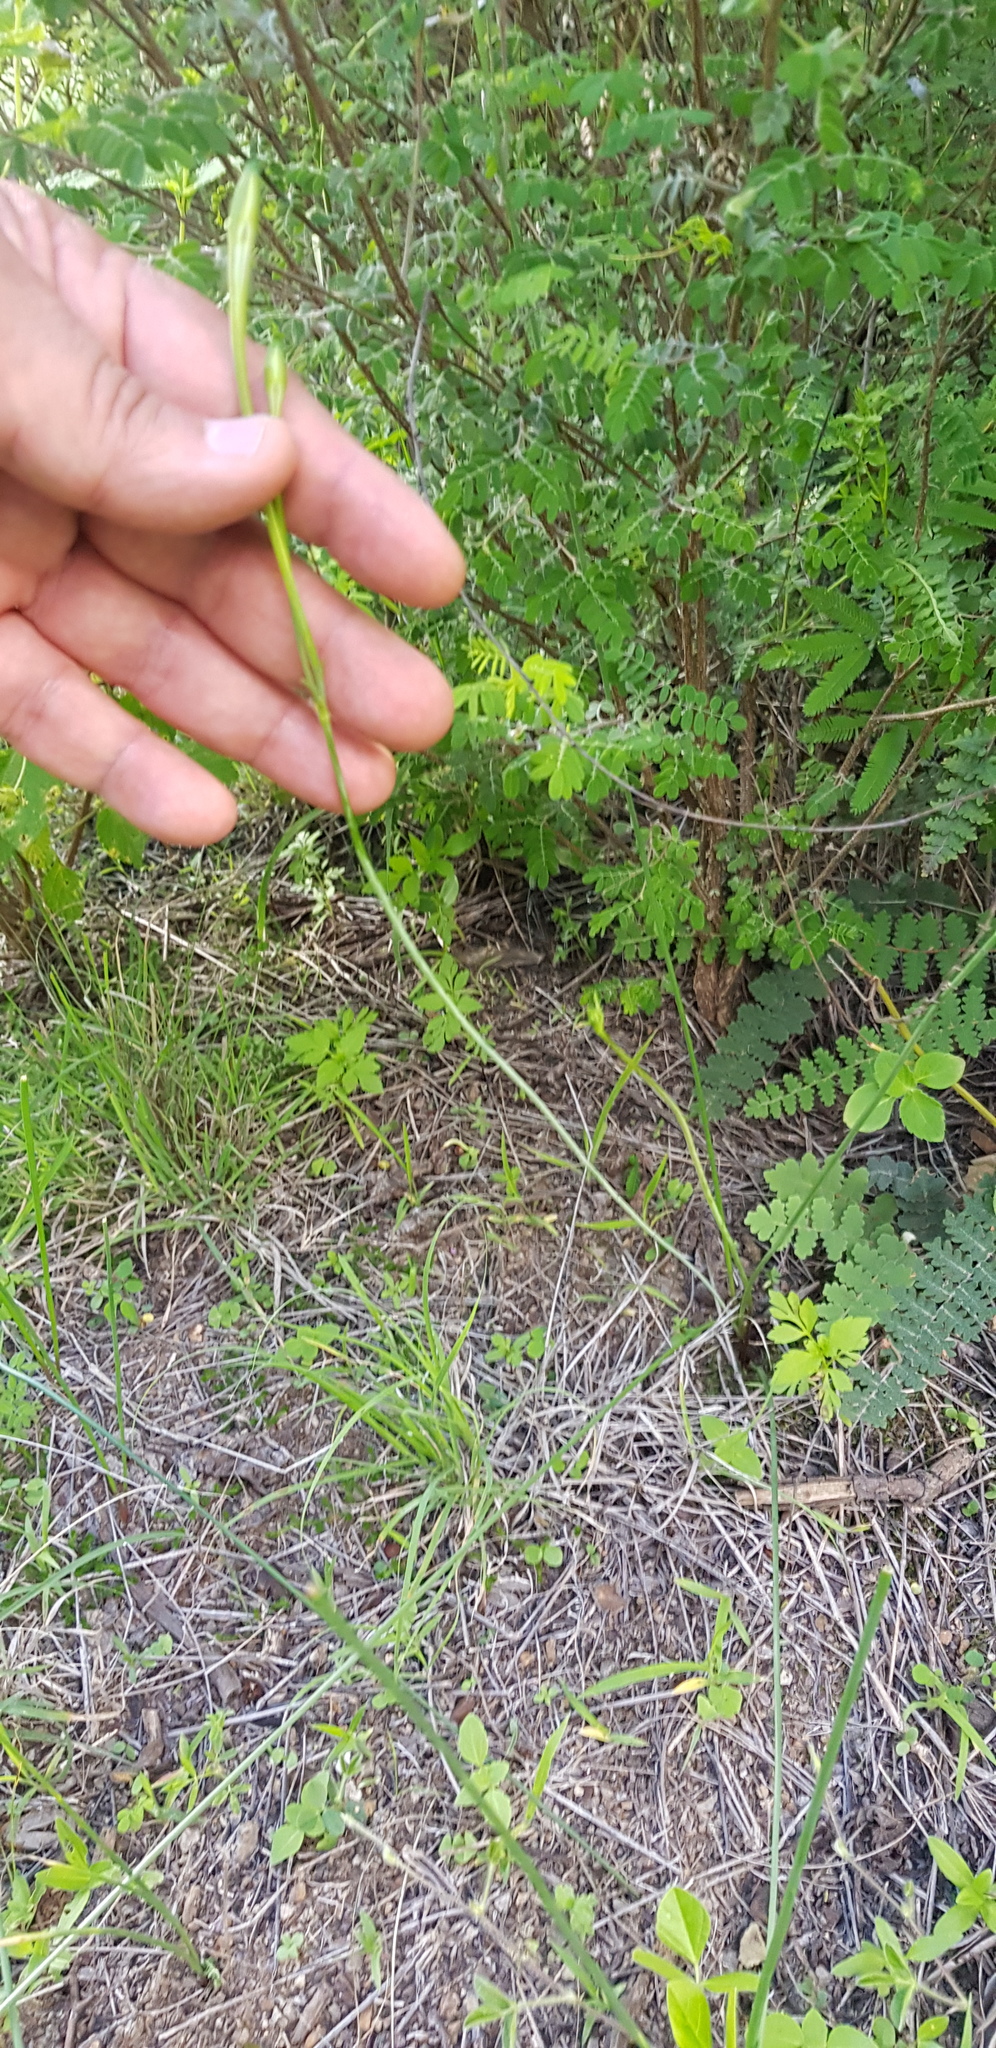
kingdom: Plantae
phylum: Tracheophyta
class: Liliopsida
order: Asparagales
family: Asparagaceae
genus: Milla
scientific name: Milla oaxacana
